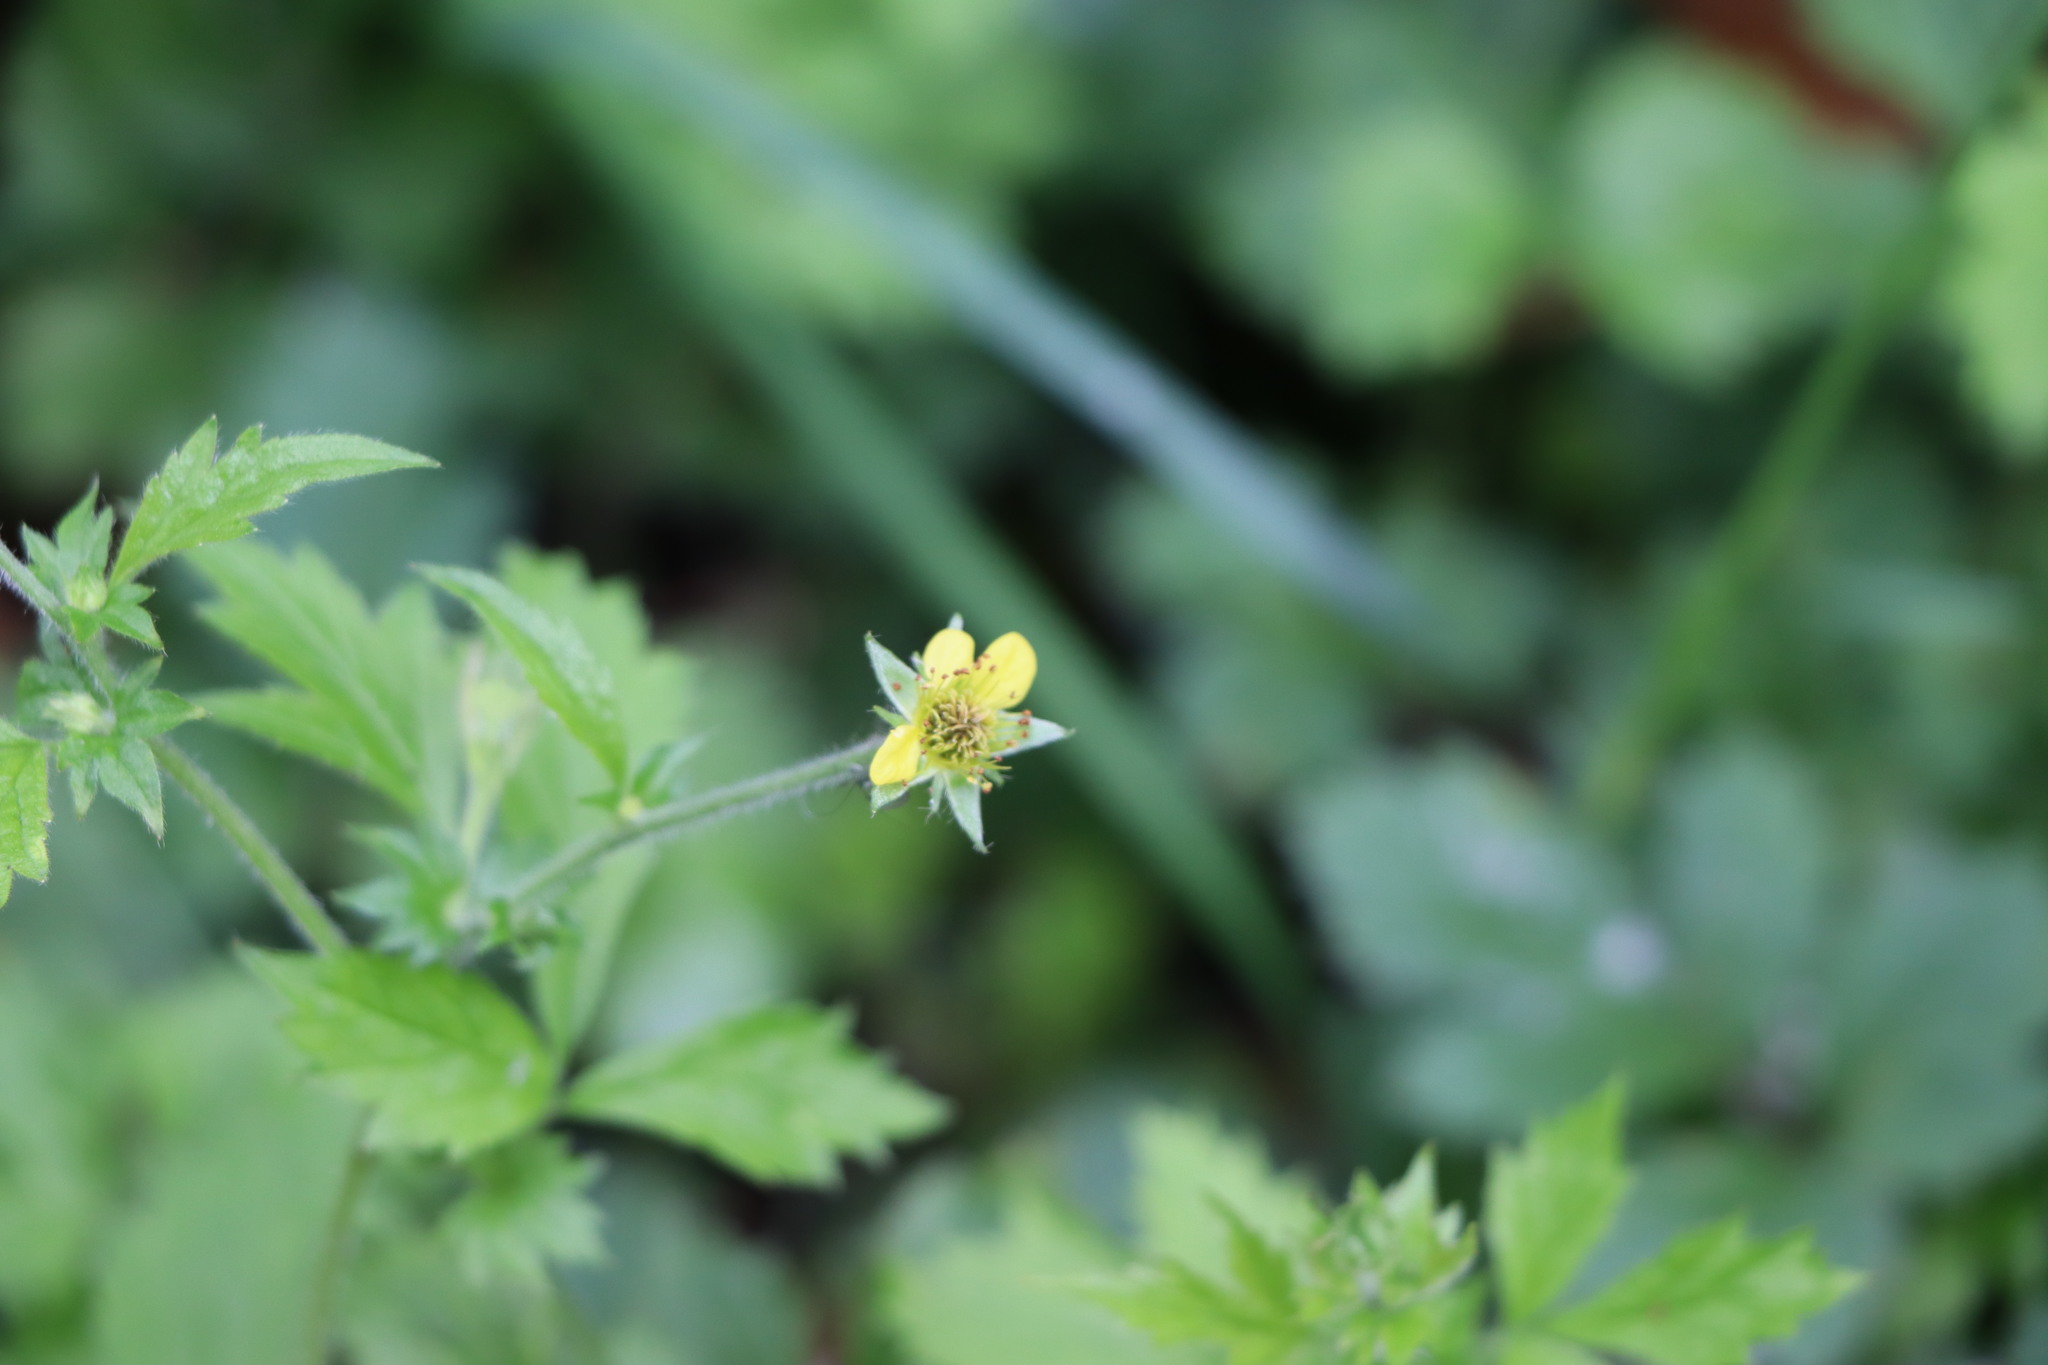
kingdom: Plantae
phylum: Tracheophyta
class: Magnoliopsida
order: Rosales
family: Rosaceae
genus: Geum
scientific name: Geum urbanum
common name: Wood avens
